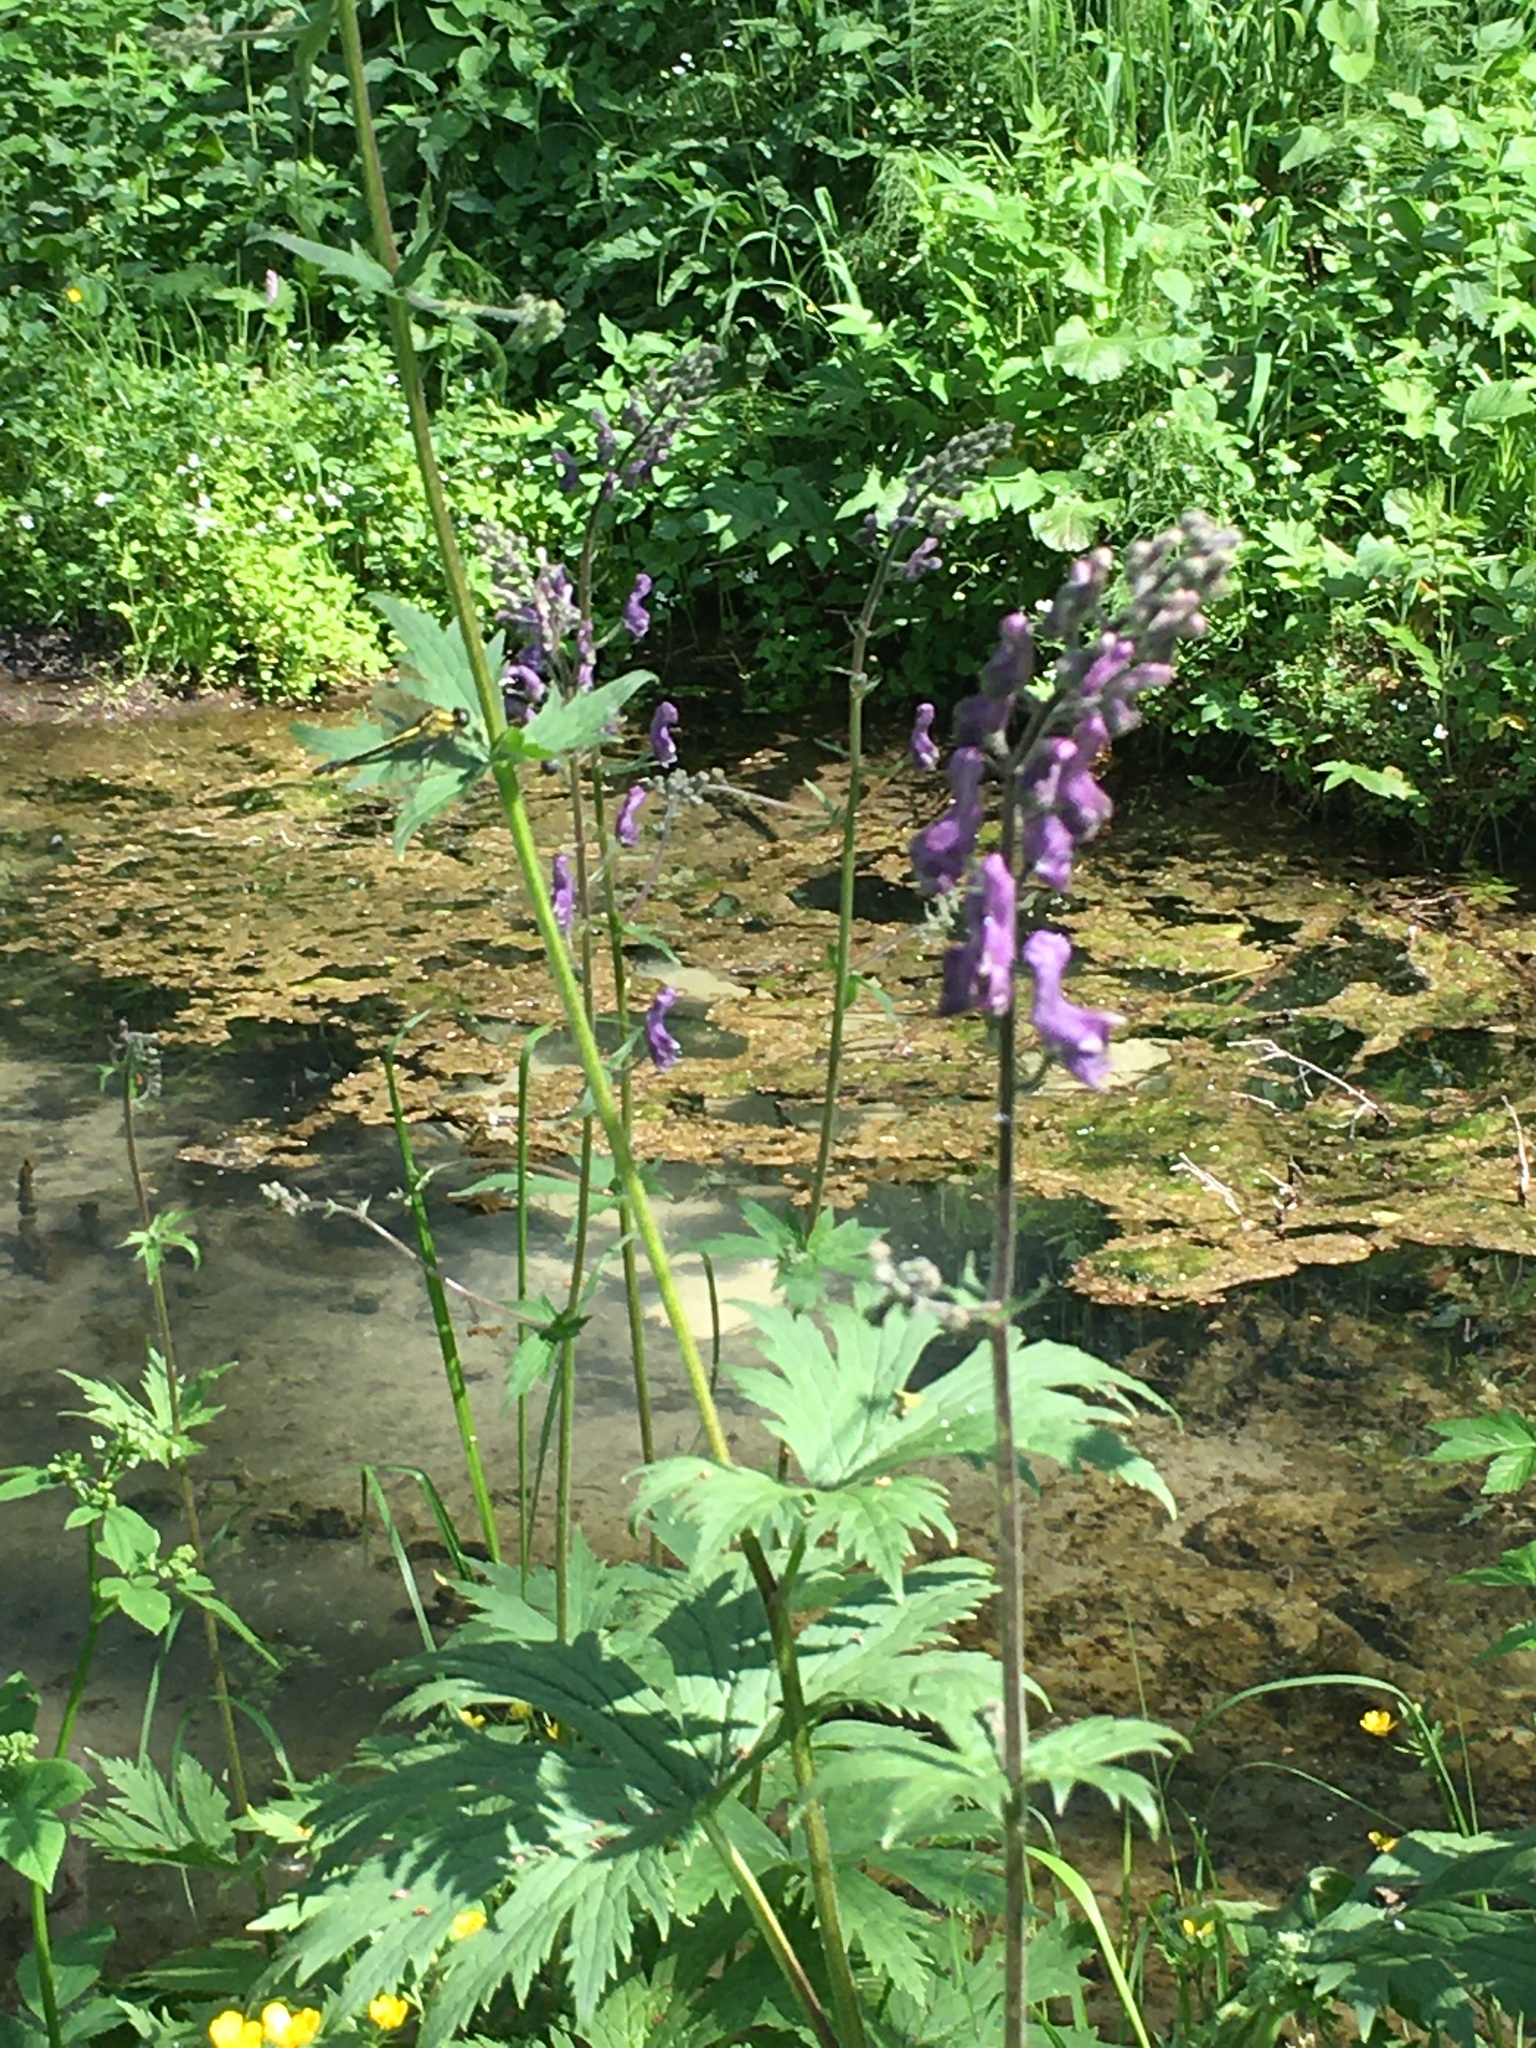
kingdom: Plantae
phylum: Tracheophyta
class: Magnoliopsida
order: Ranunculales
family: Papaveraceae
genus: Corydalis
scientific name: Corydalis solida
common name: Bird-in-a-bush
